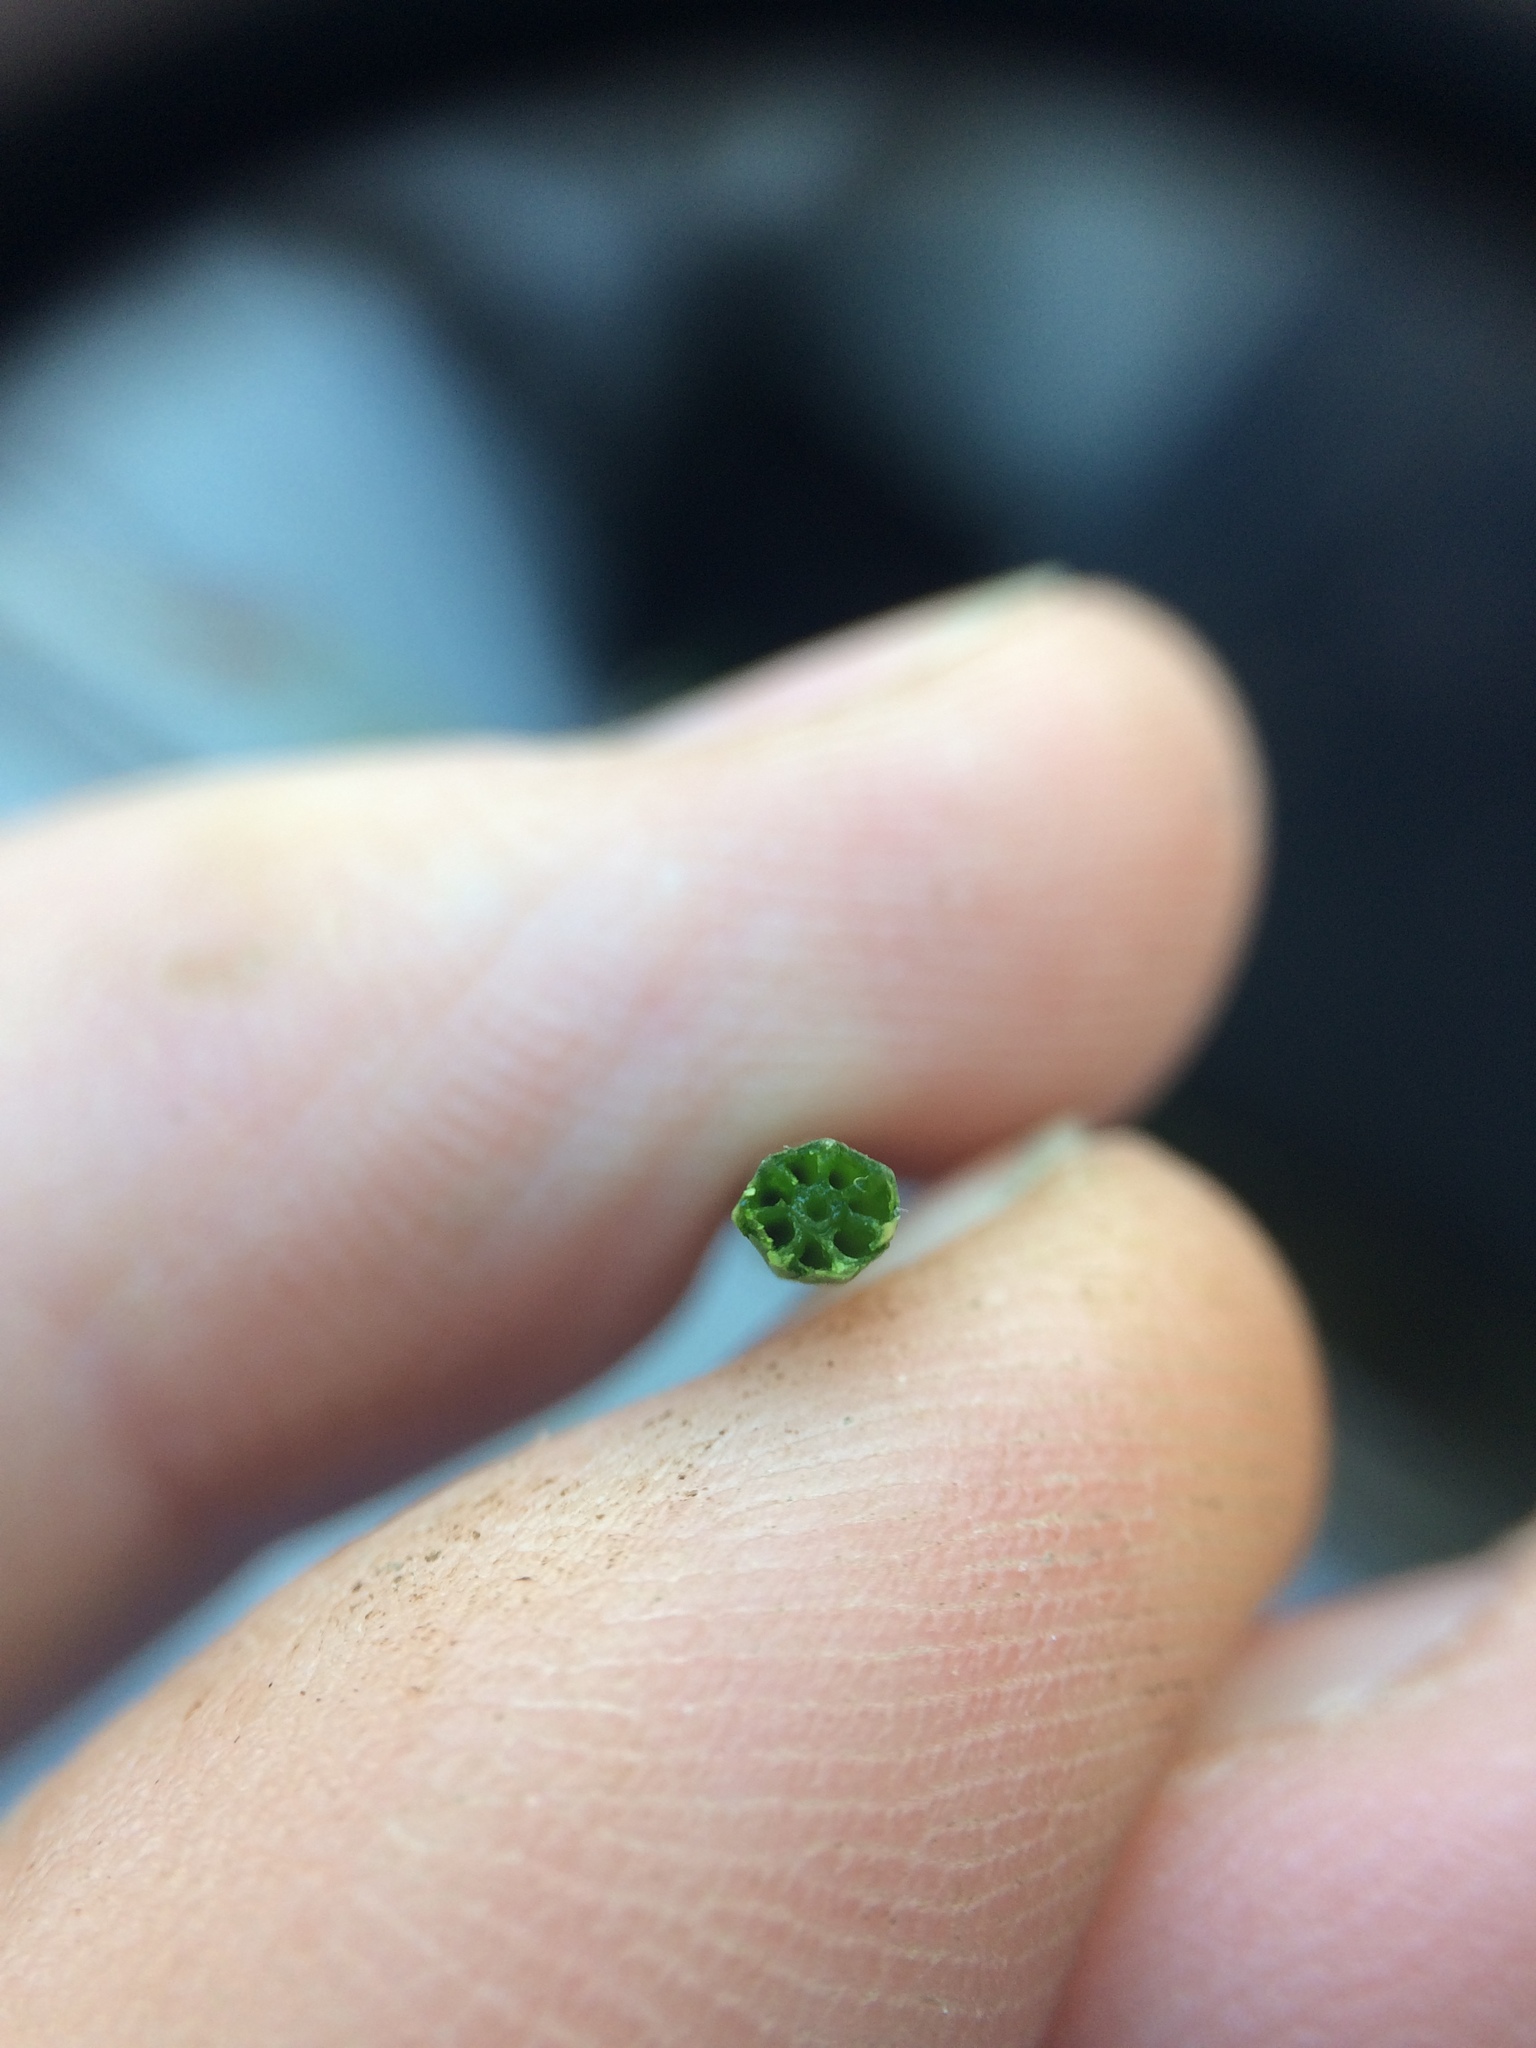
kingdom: Plantae
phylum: Tracheophyta
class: Polypodiopsida
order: Equisetales
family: Equisetaceae
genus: Equisetum
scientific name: Equisetum palustre
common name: Marsh horsetail
